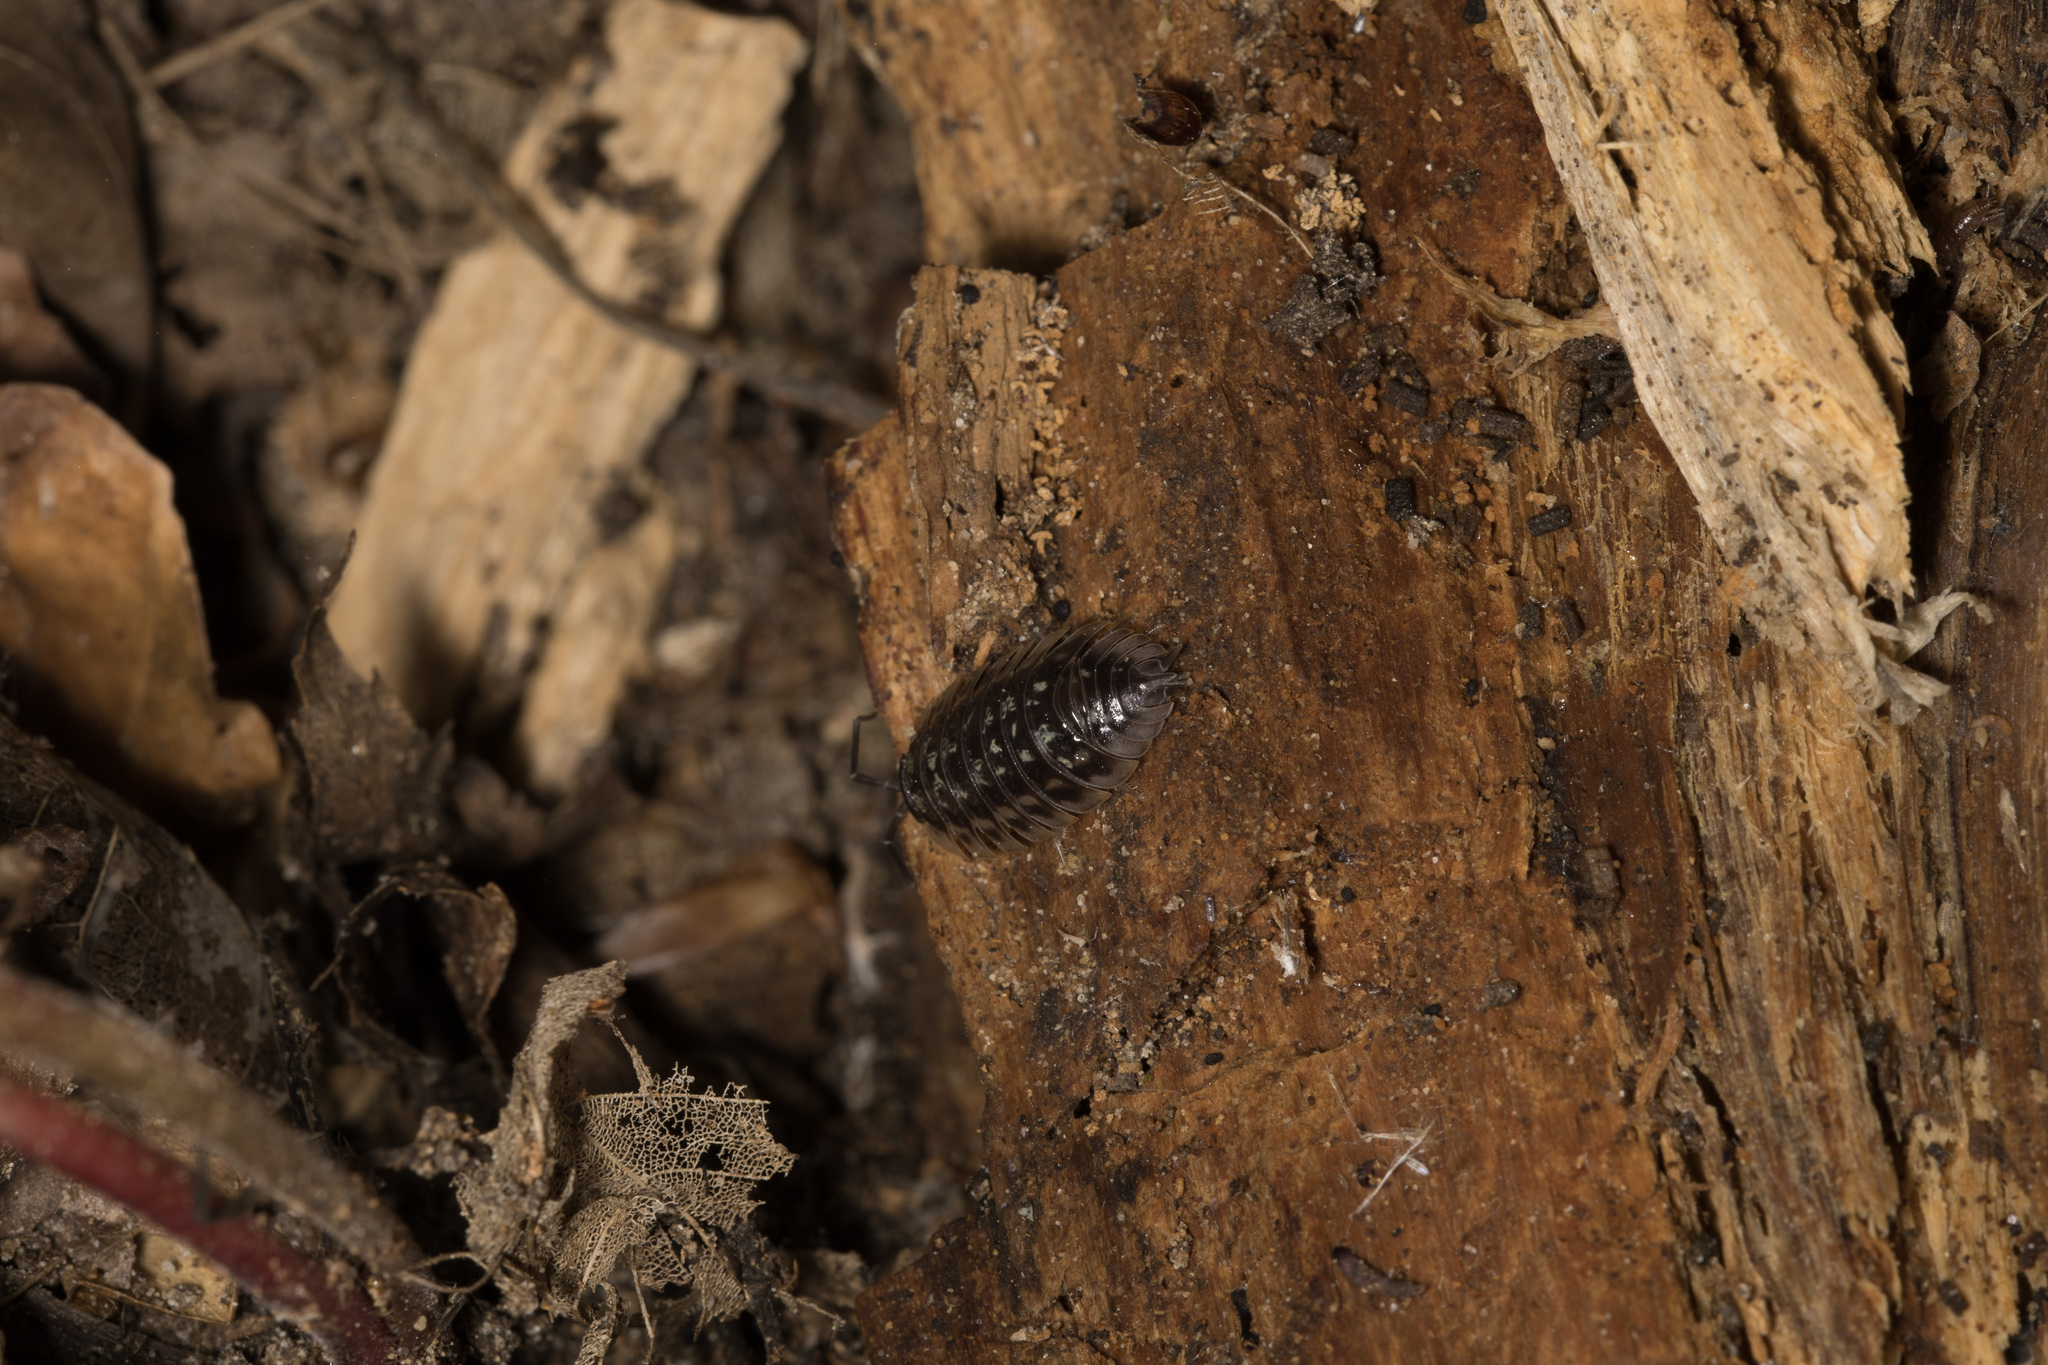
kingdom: Animalia
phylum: Arthropoda
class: Malacostraca
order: Isopoda
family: Oniscidae
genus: Oniscus
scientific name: Oniscus asellus
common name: Common shiny woodlouse
